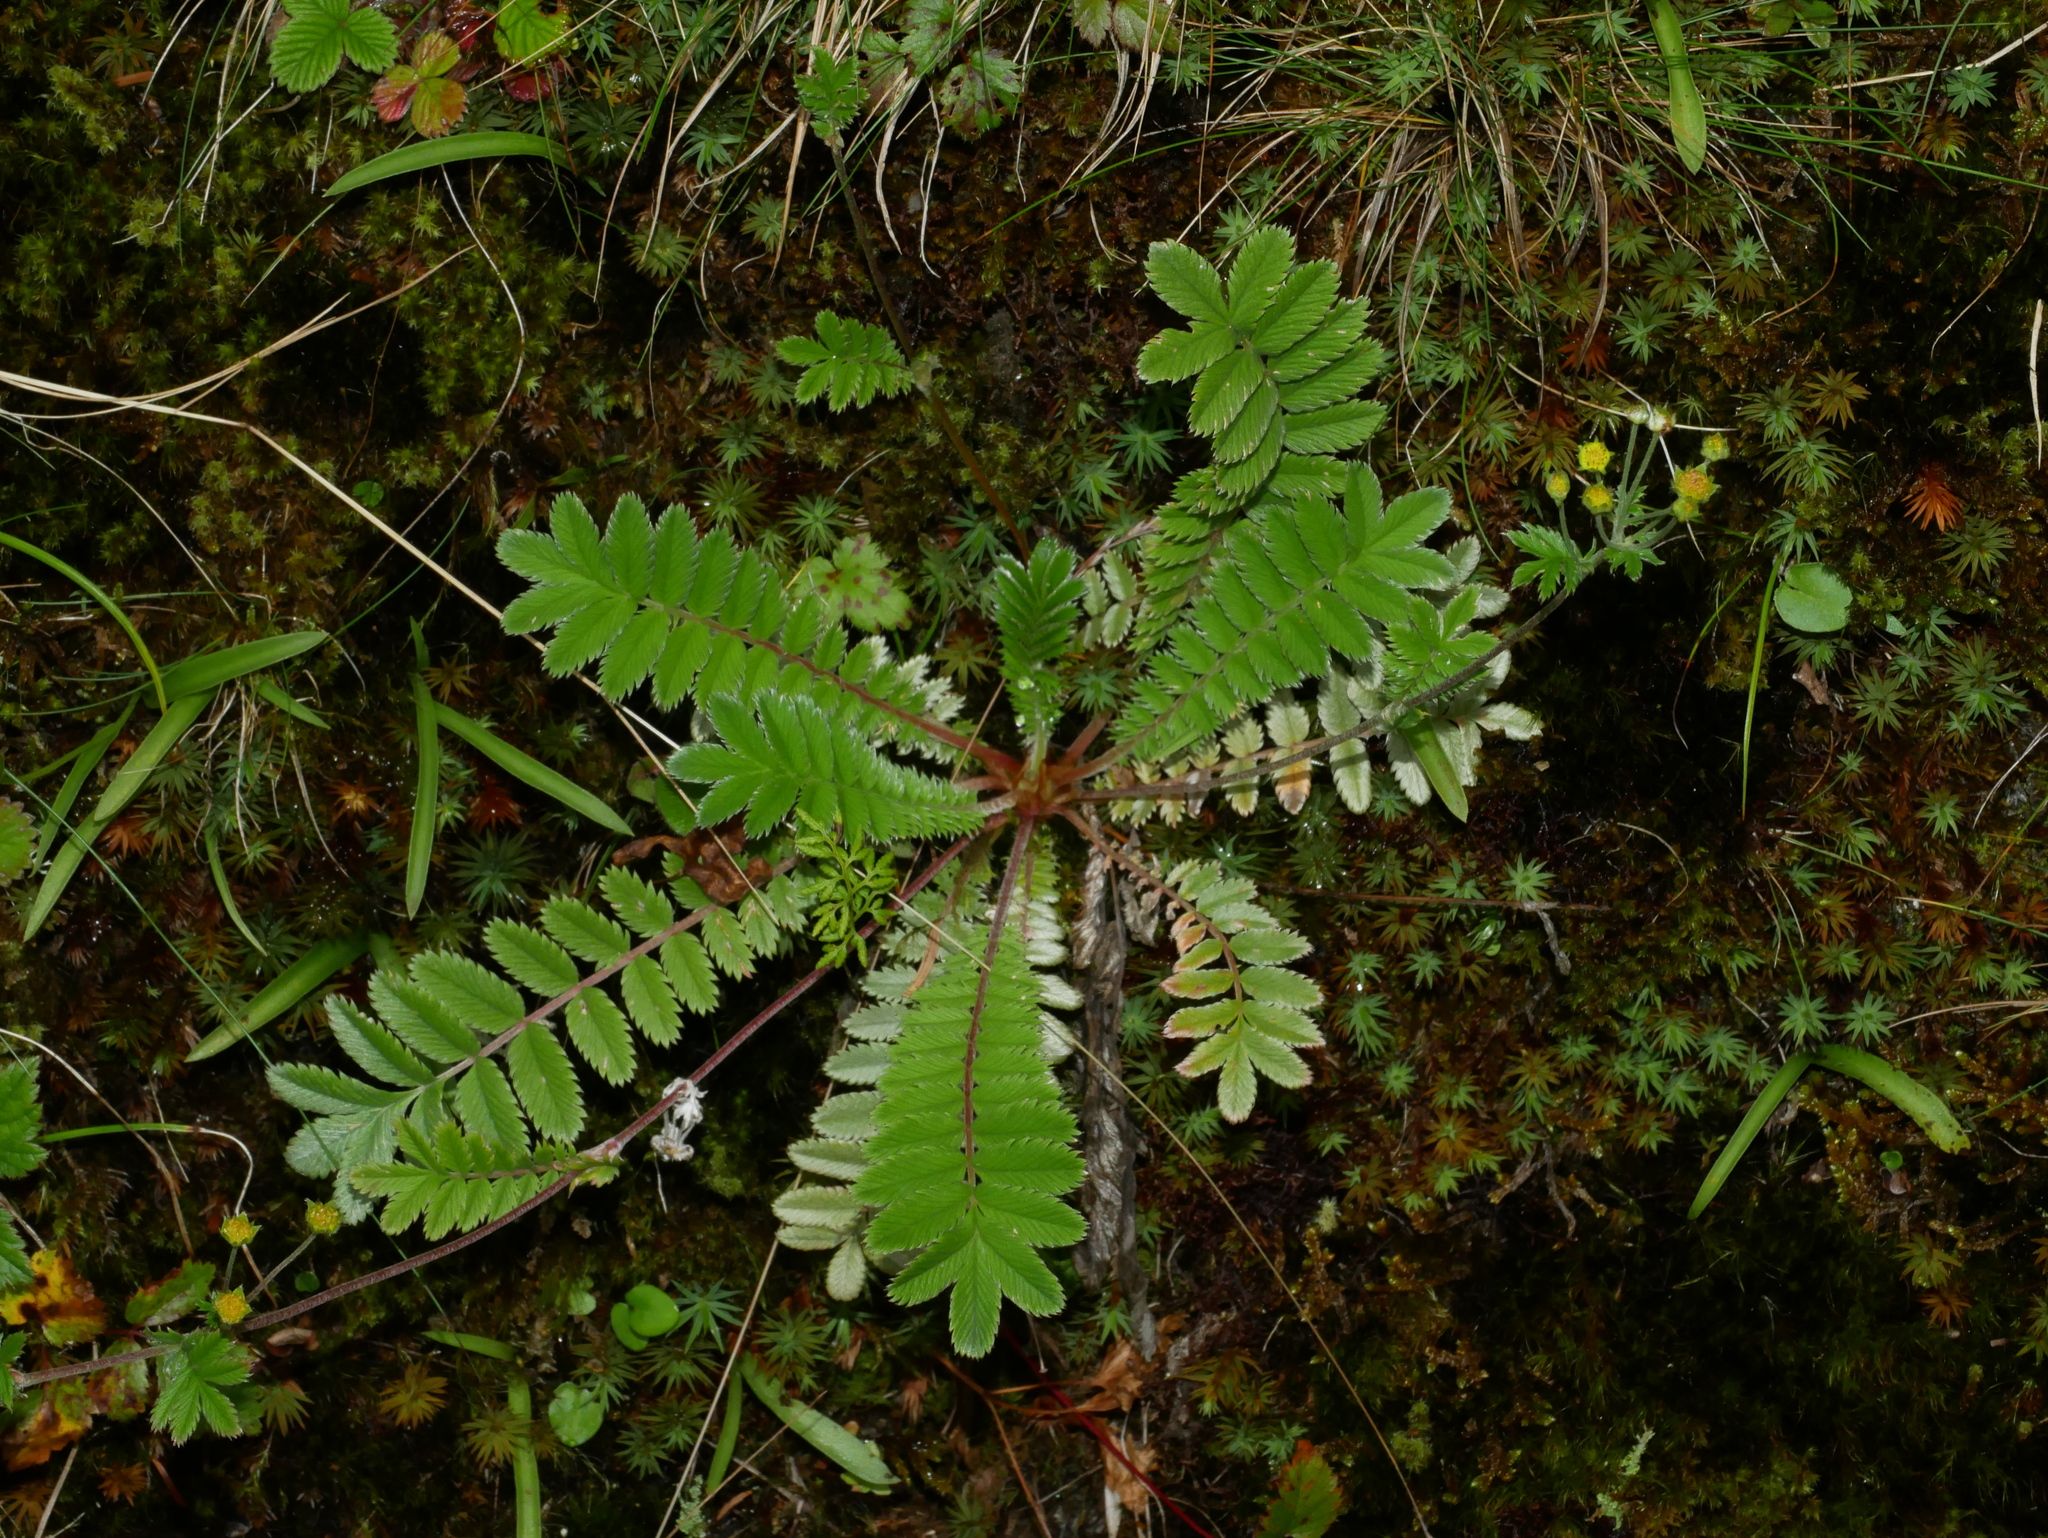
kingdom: Plantae
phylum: Tracheophyta
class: Magnoliopsida
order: Rosales
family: Rosaceae
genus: Argentina
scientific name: Argentina leuconota
